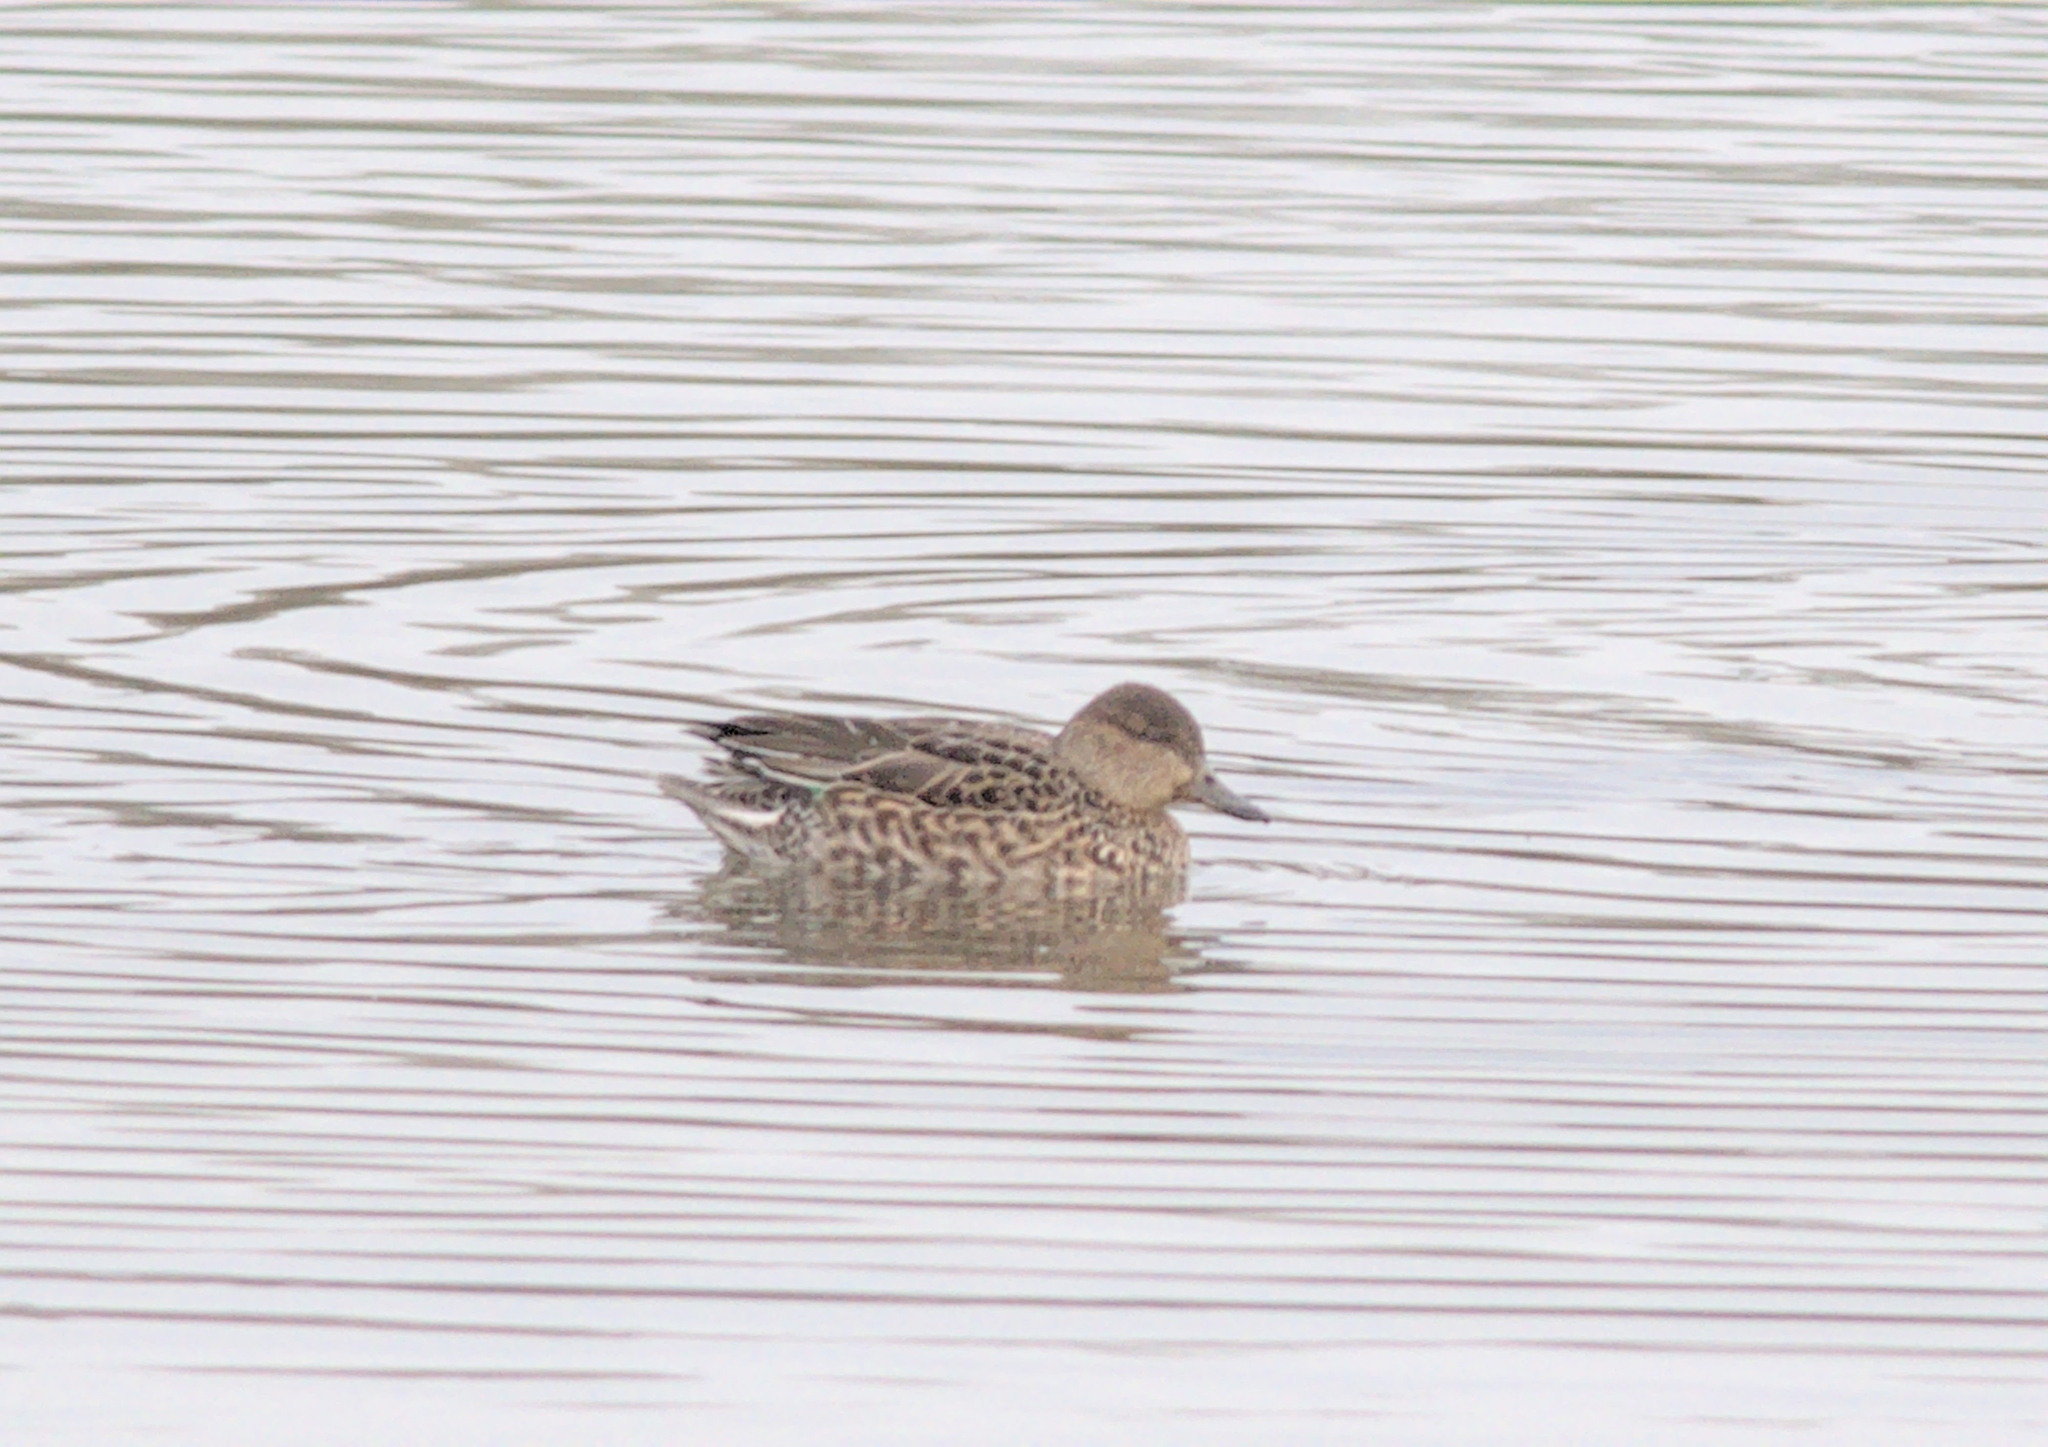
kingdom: Animalia
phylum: Chordata
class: Aves
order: Anseriformes
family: Anatidae
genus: Anas
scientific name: Anas crecca
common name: Eurasian teal
